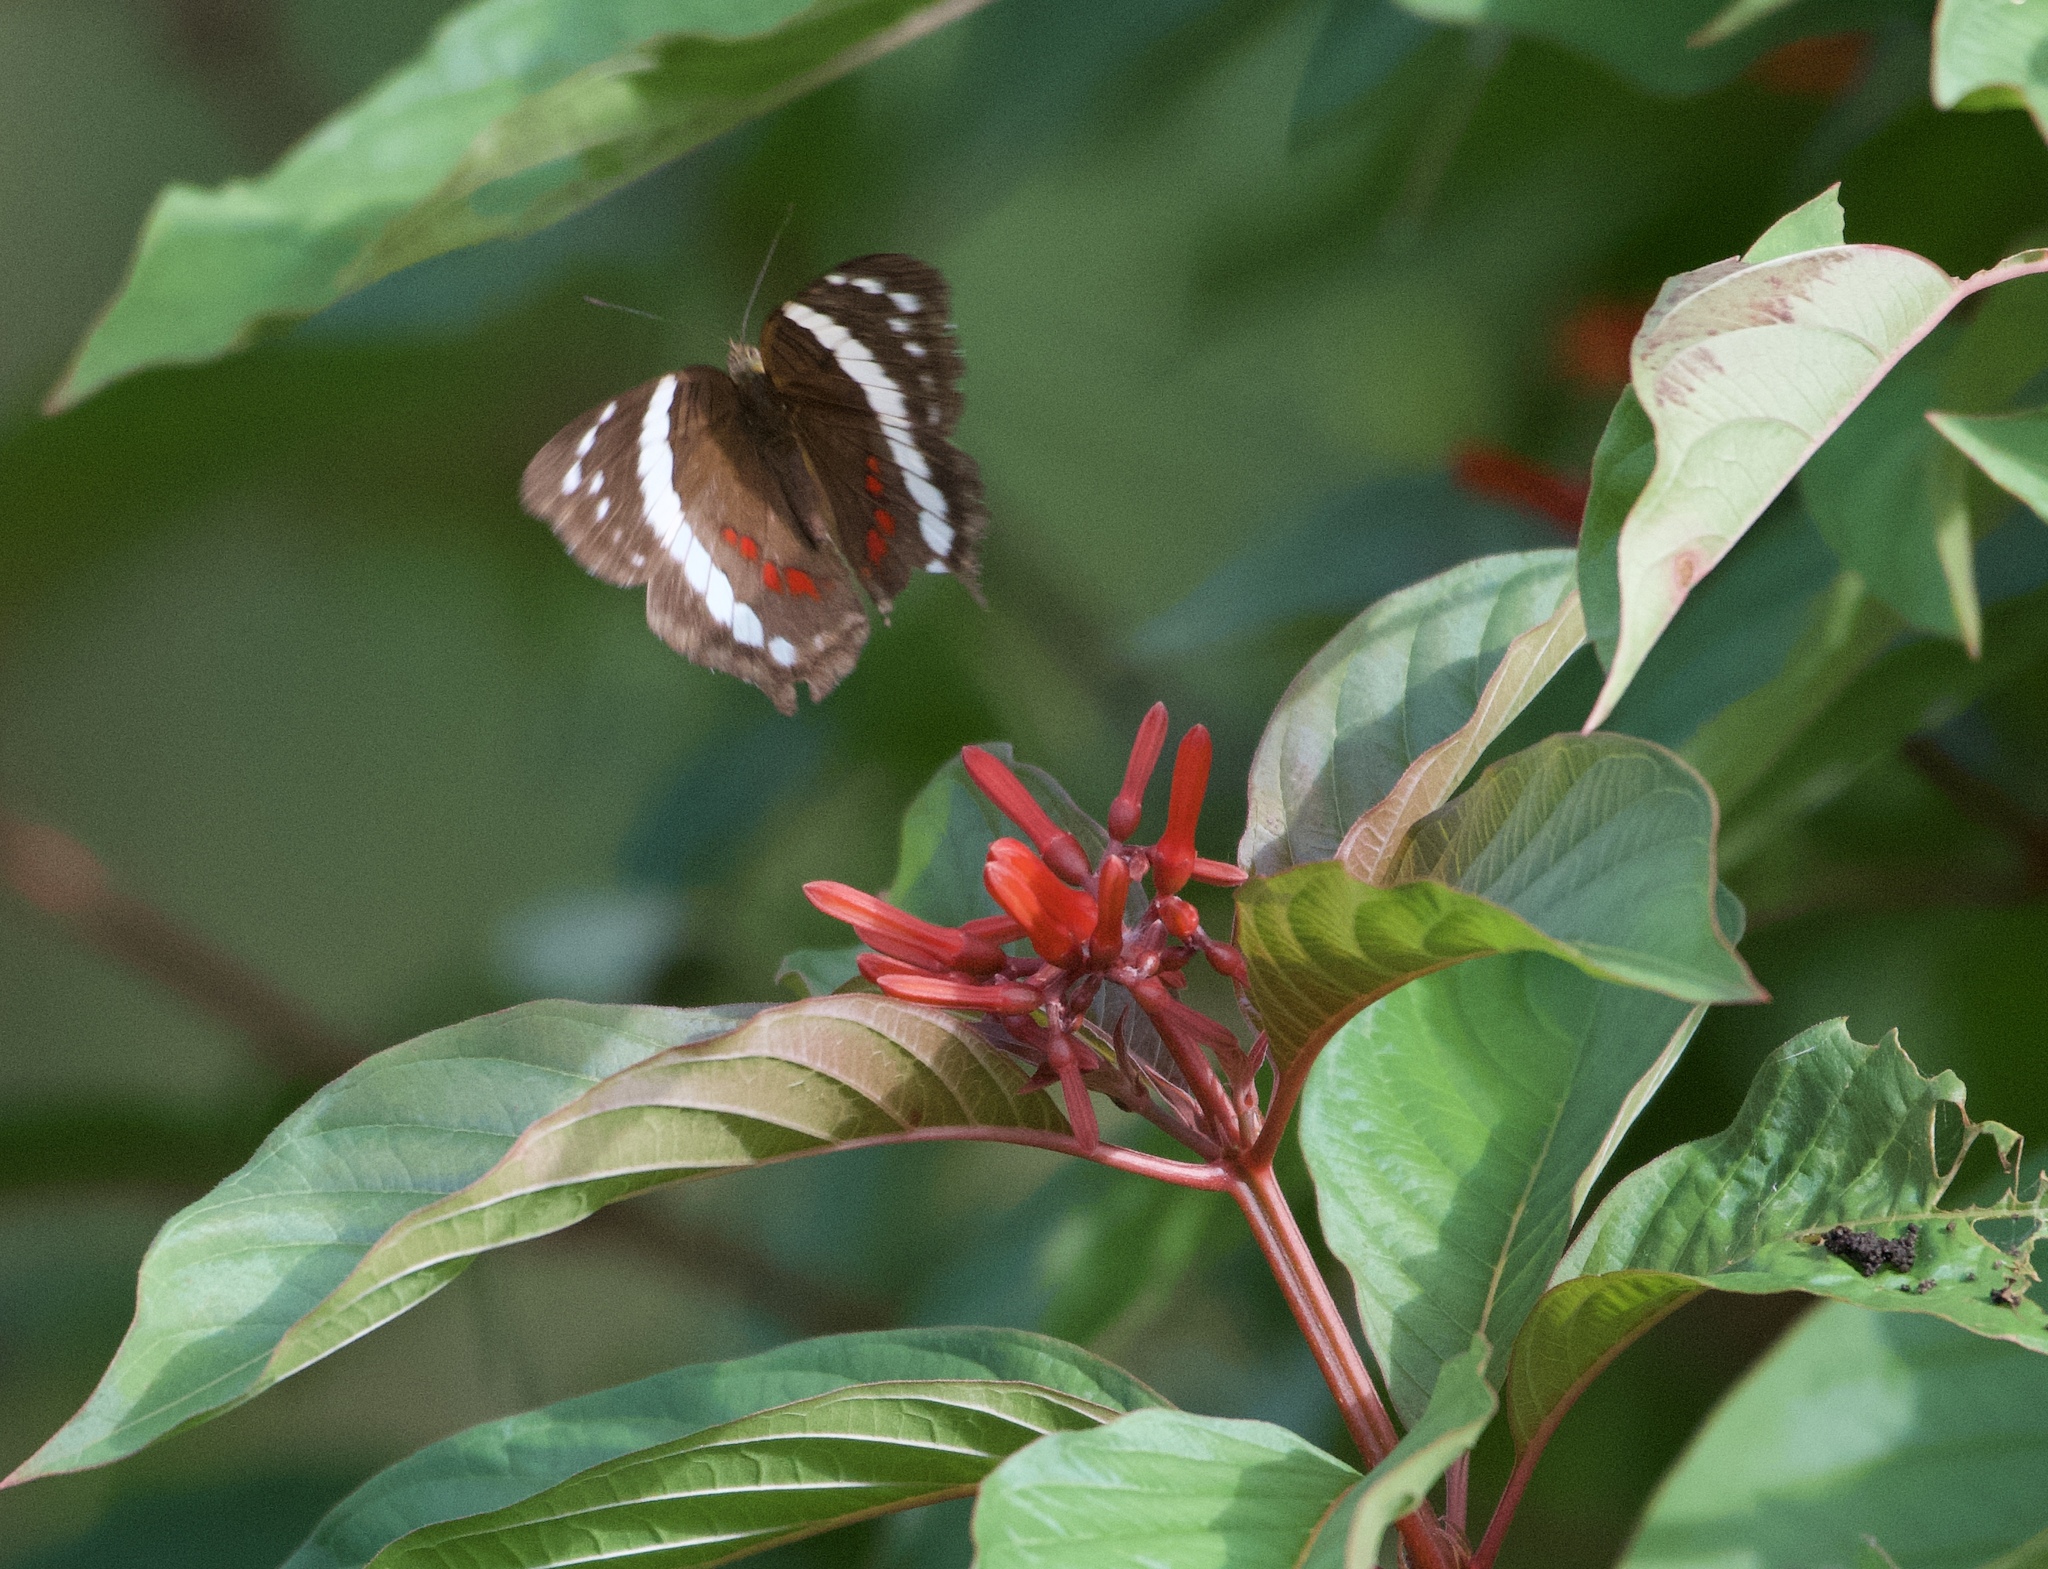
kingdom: Animalia
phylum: Arthropoda
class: Insecta
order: Lepidoptera
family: Nymphalidae
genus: Anartia
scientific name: Anartia fatima
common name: Banded peacock
